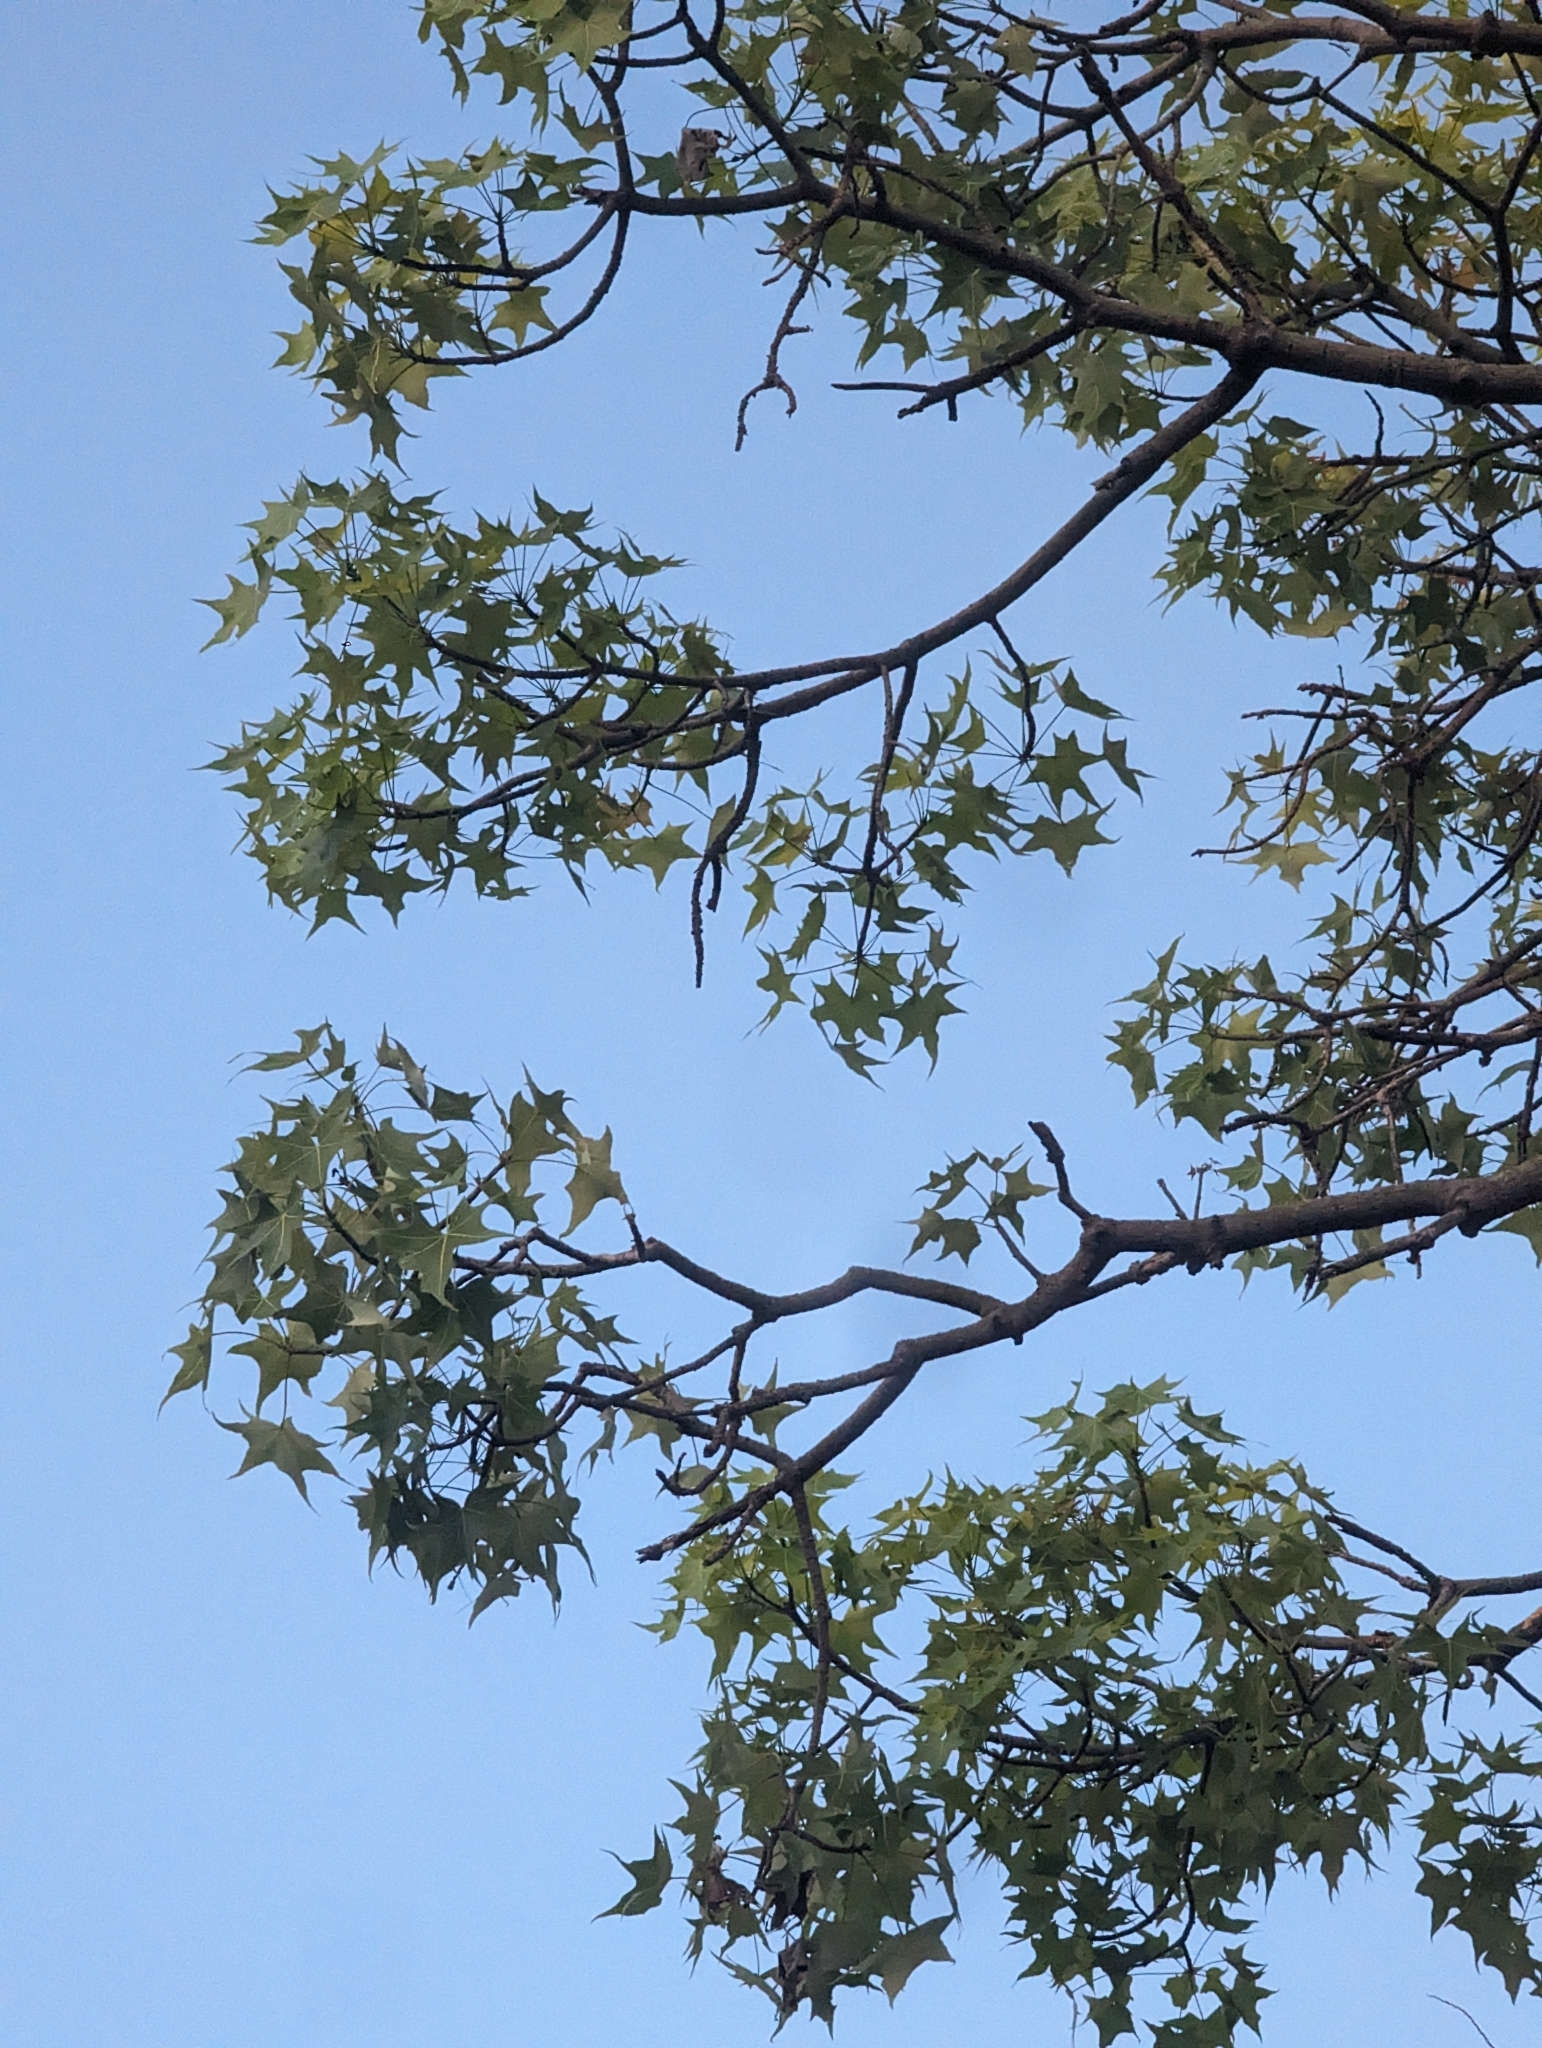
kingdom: Plantae
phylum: Tracheophyta
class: Magnoliopsida
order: Malvales
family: Malvaceae
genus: Brachychiton
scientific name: Brachychiton australis
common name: Large-leaf bottletree
